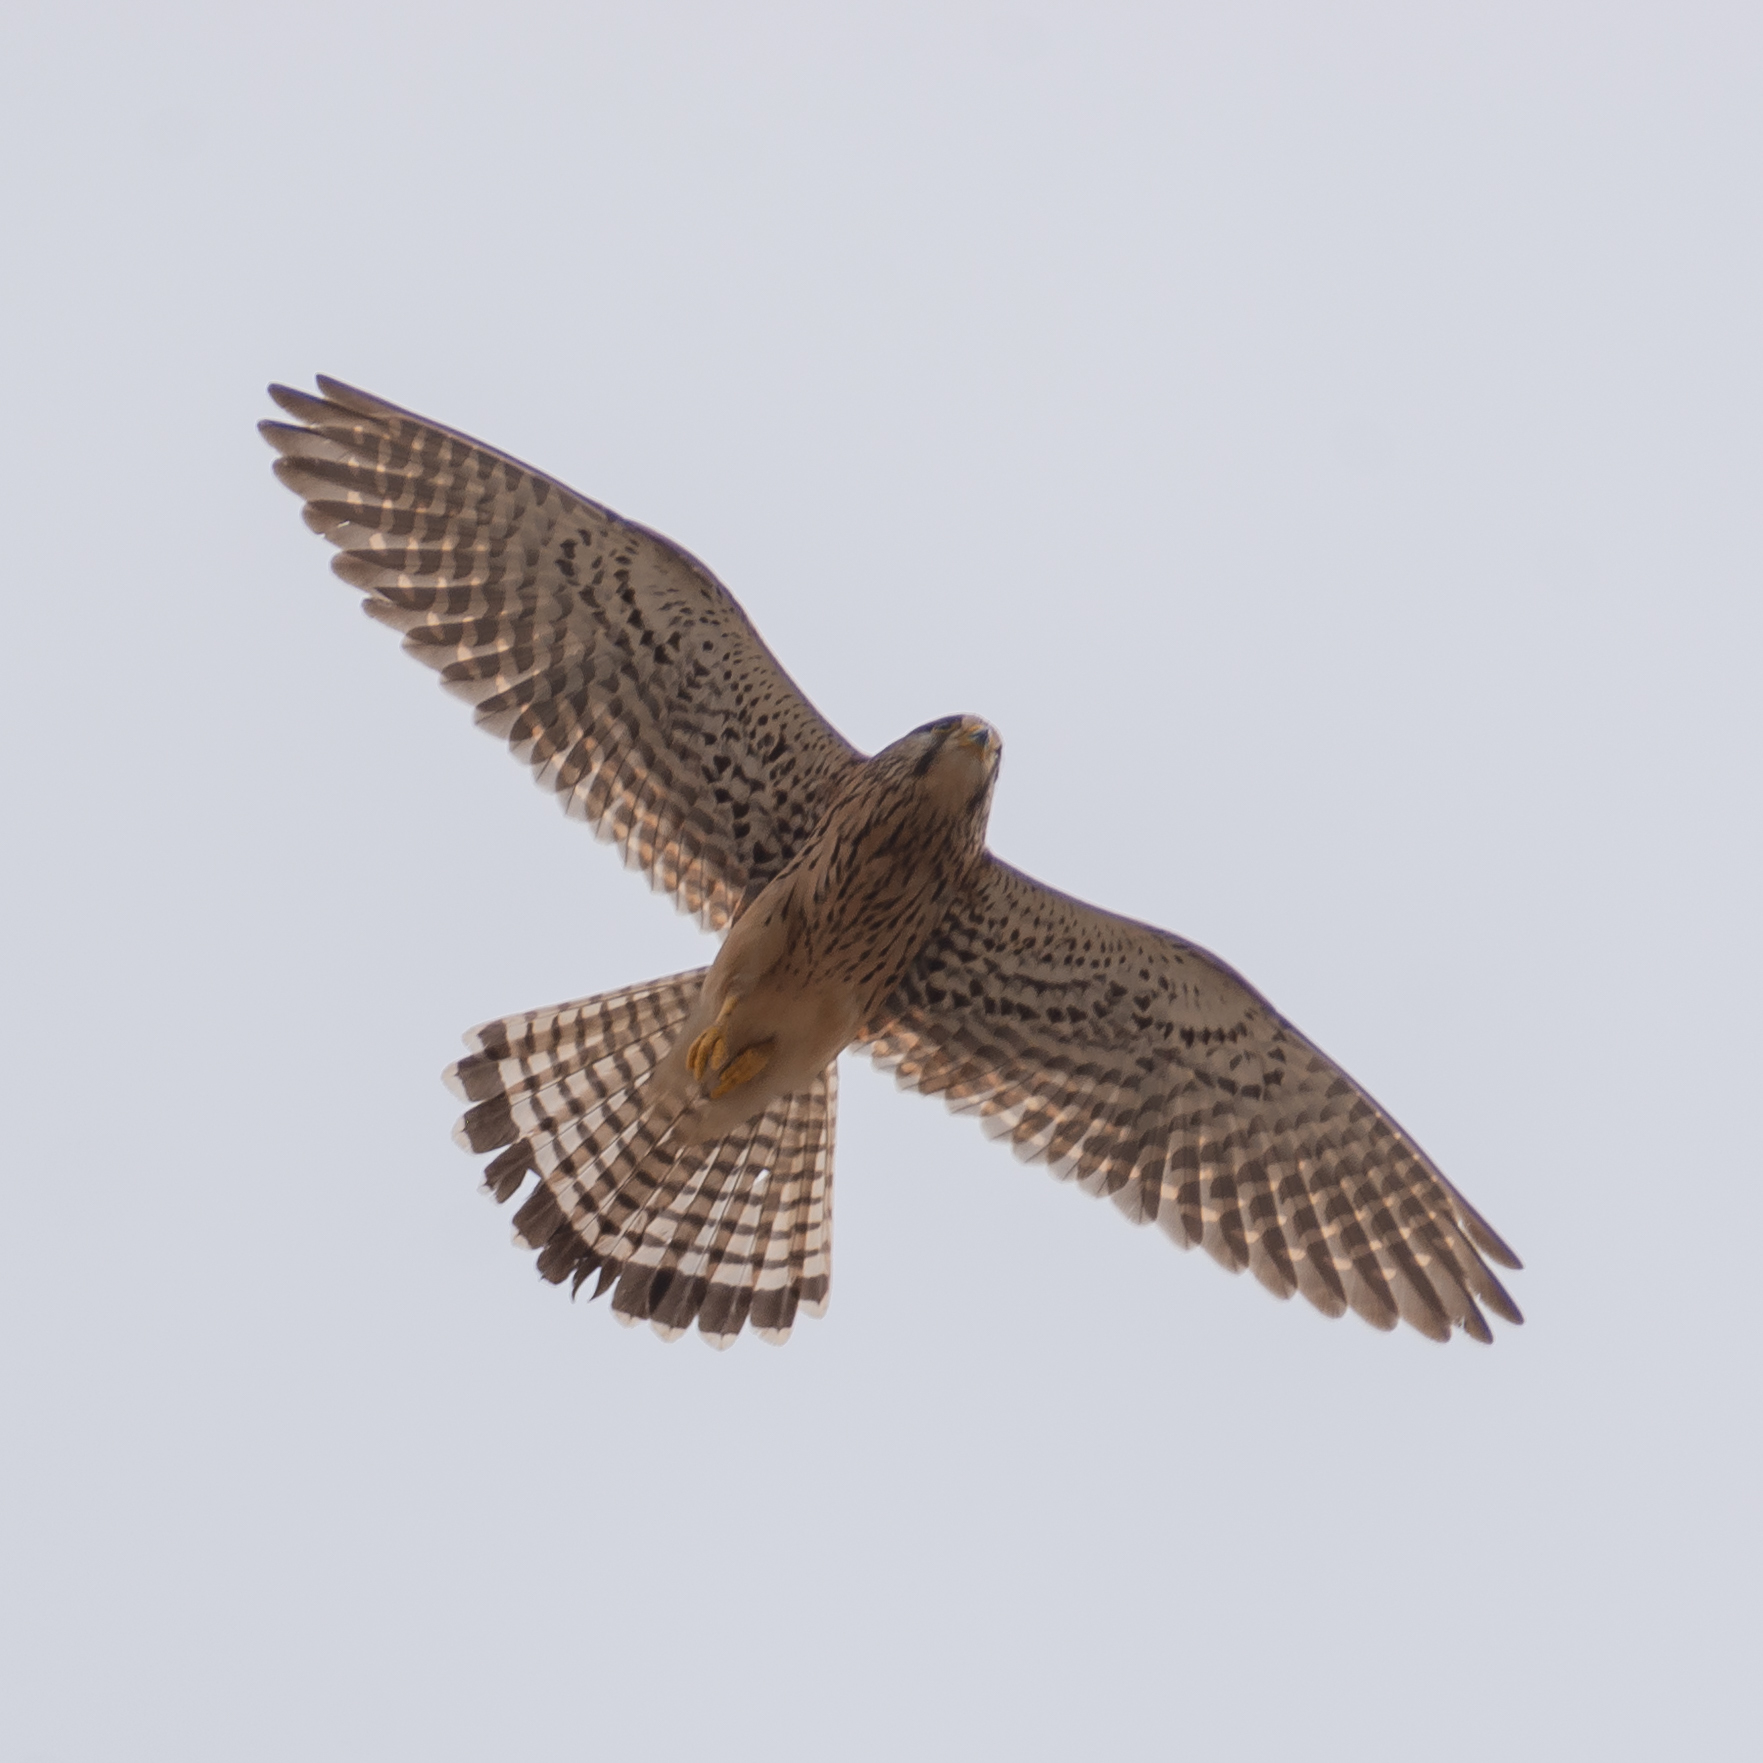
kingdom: Animalia
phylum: Chordata
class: Aves
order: Falconiformes
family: Falconidae
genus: Falco
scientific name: Falco tinnunculus
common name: Common kestrel
